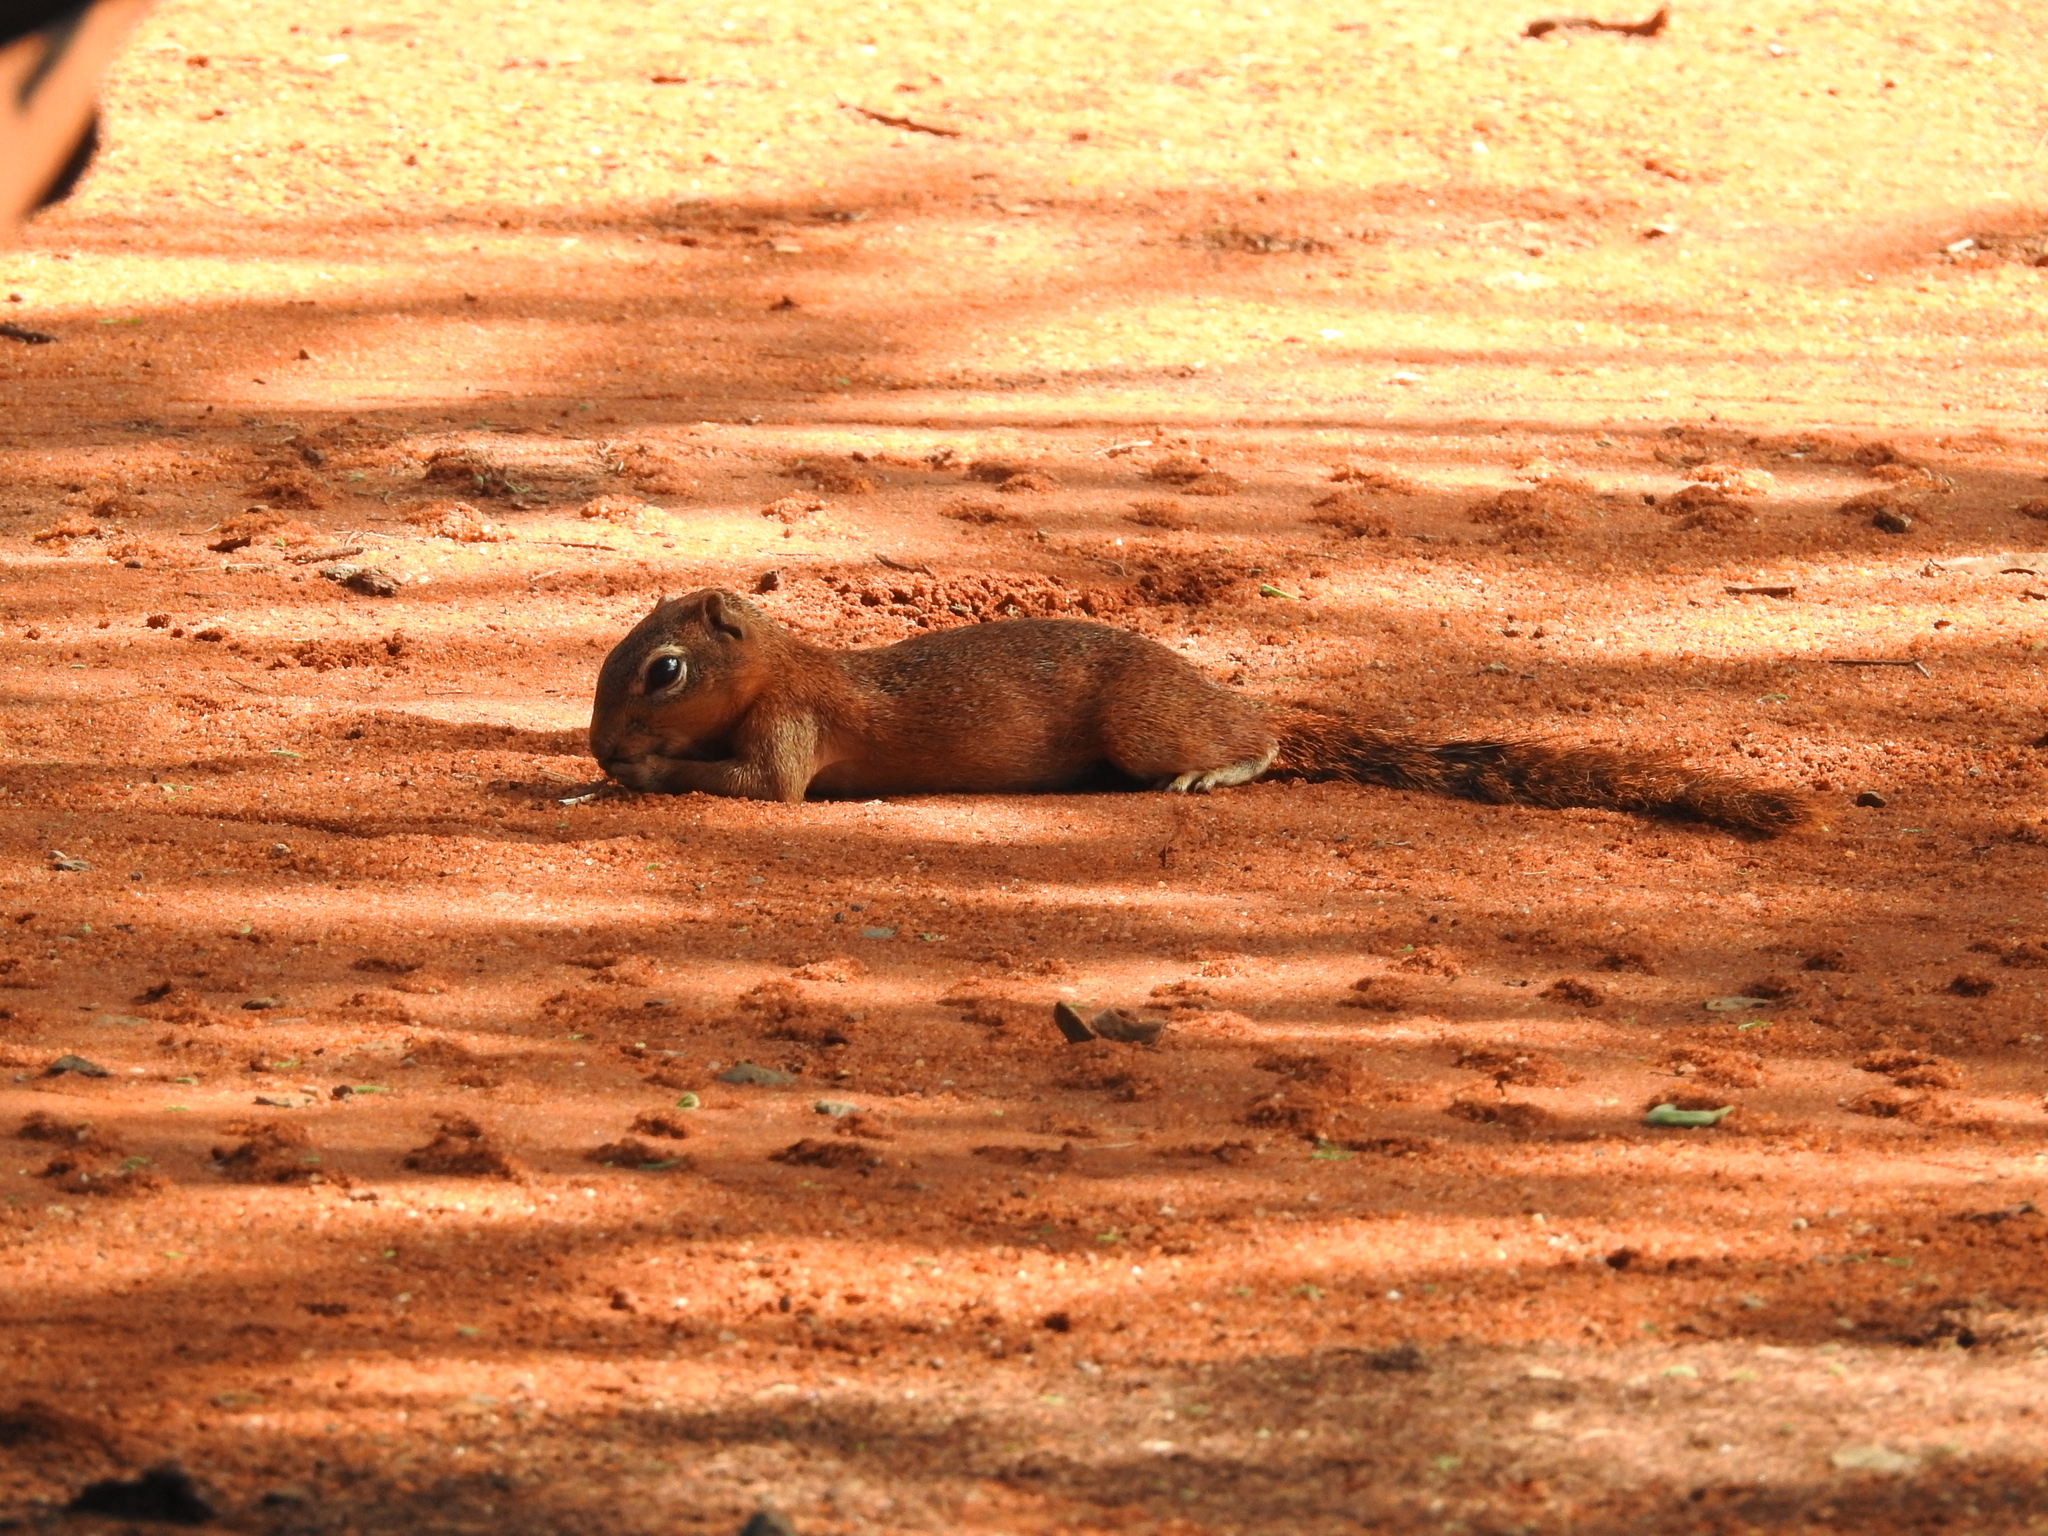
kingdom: Animalia
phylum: Chordata
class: Mammalia
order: Rodentia
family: Sciuridae
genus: Xerus
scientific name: Xerus rutilus
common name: Unstriped ground squirrel
